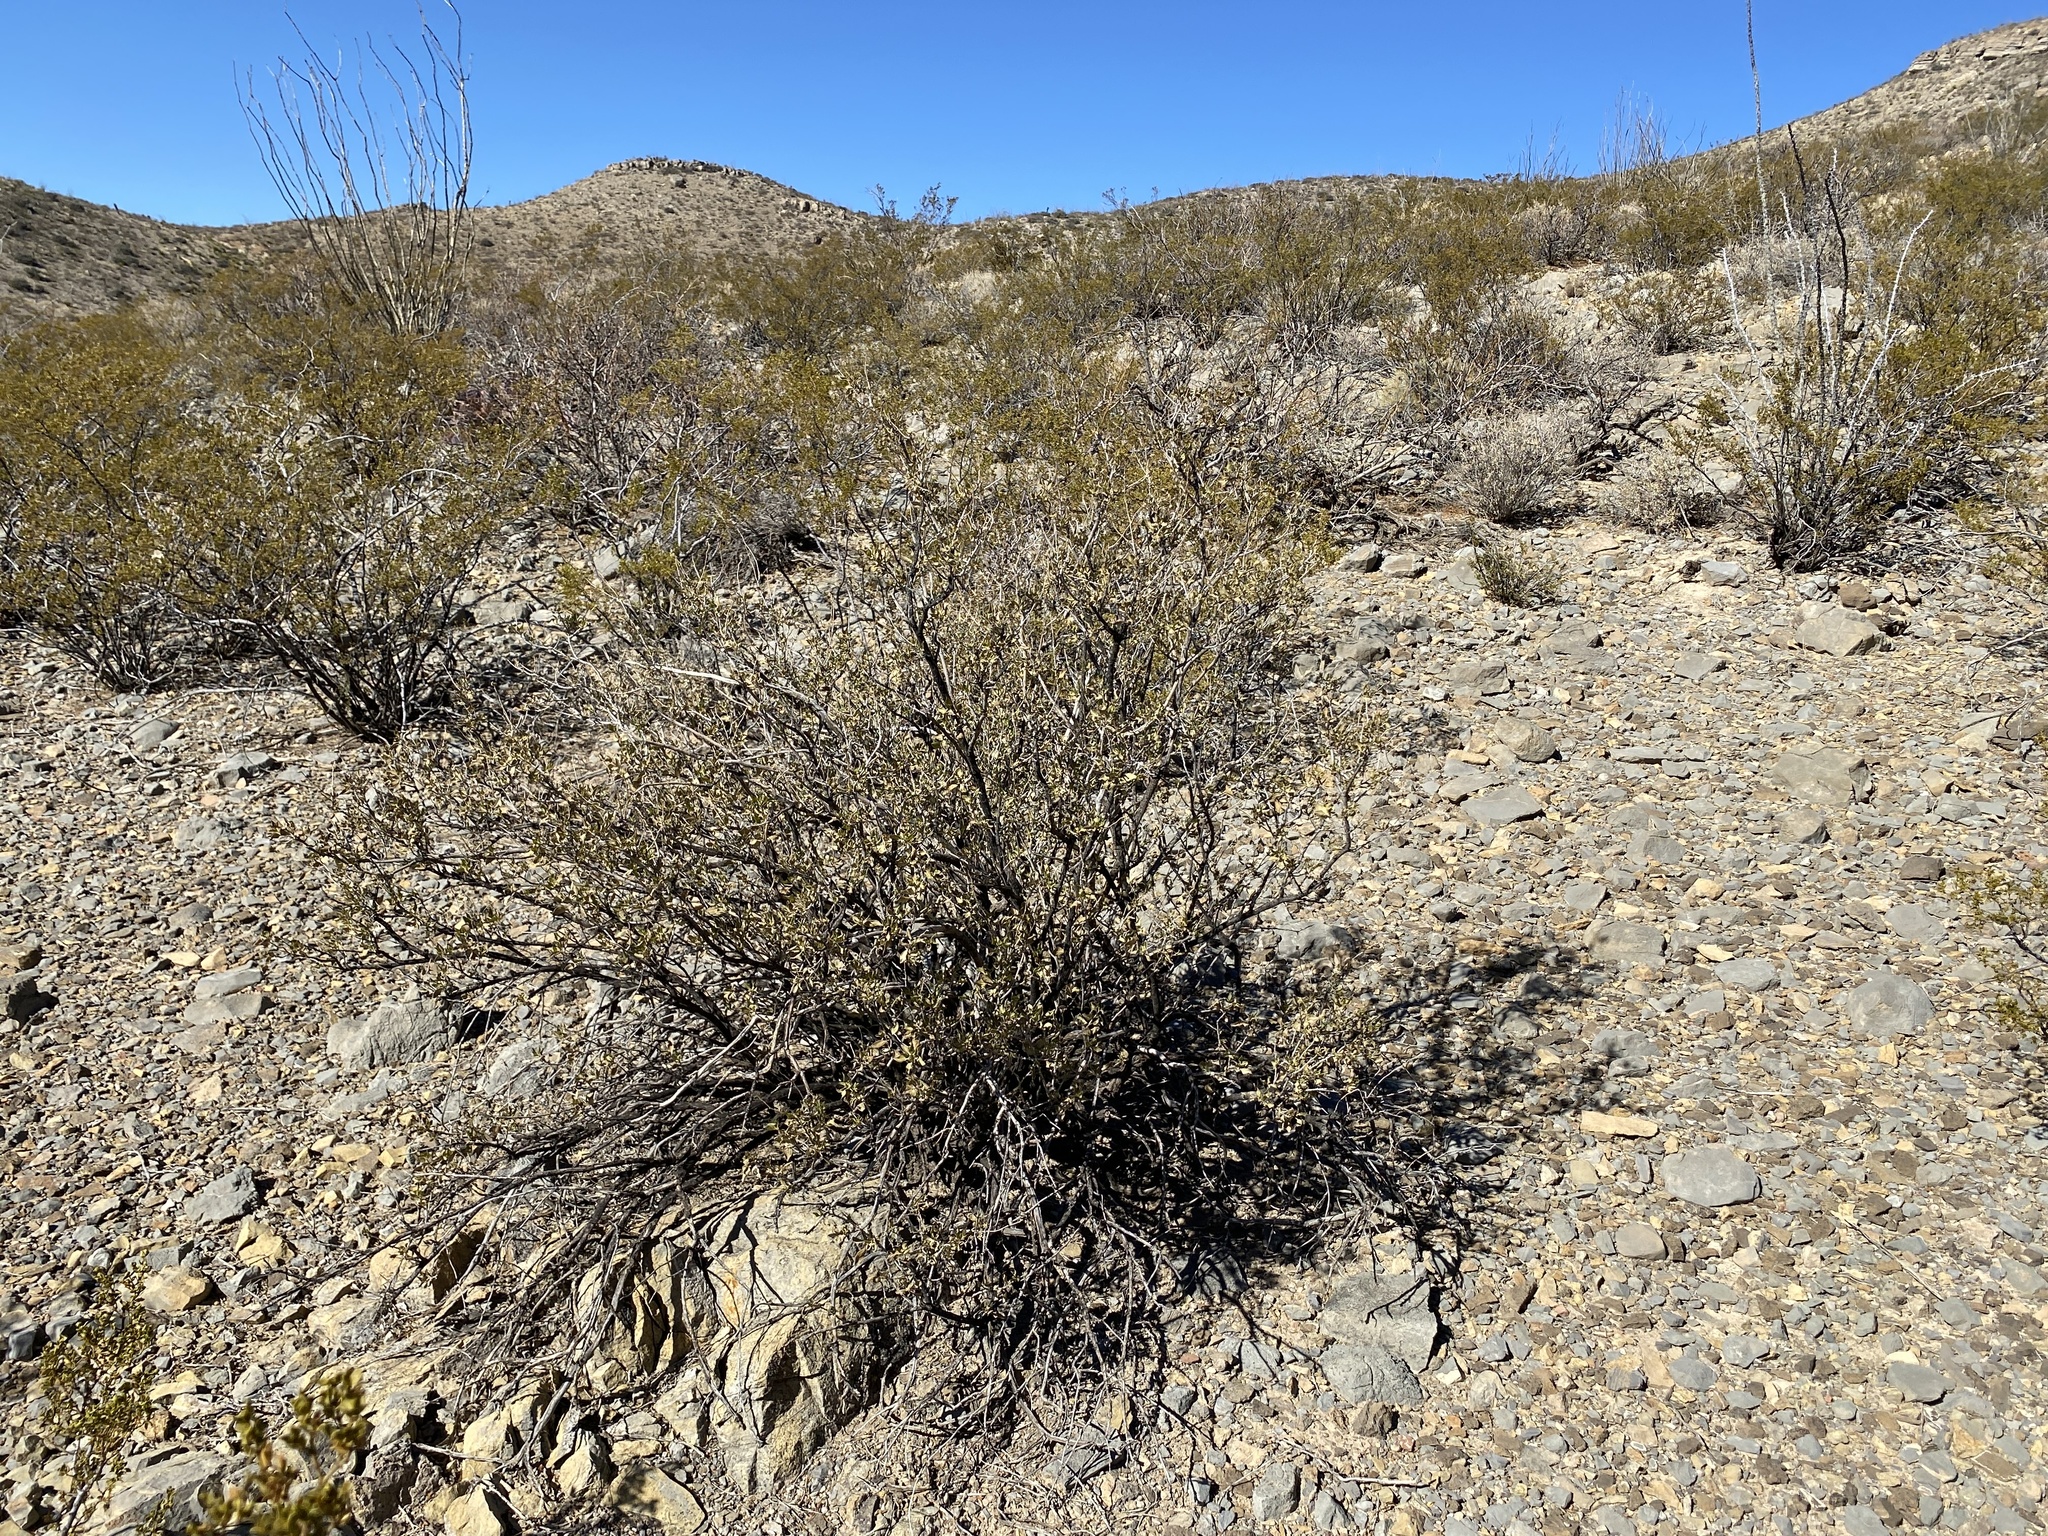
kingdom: Plantae
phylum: Tracheophyta
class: Magnoliopsida
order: Asterales
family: Asteraceae
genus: Flourensia
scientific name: Flourensia cernua
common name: Varnishbush
